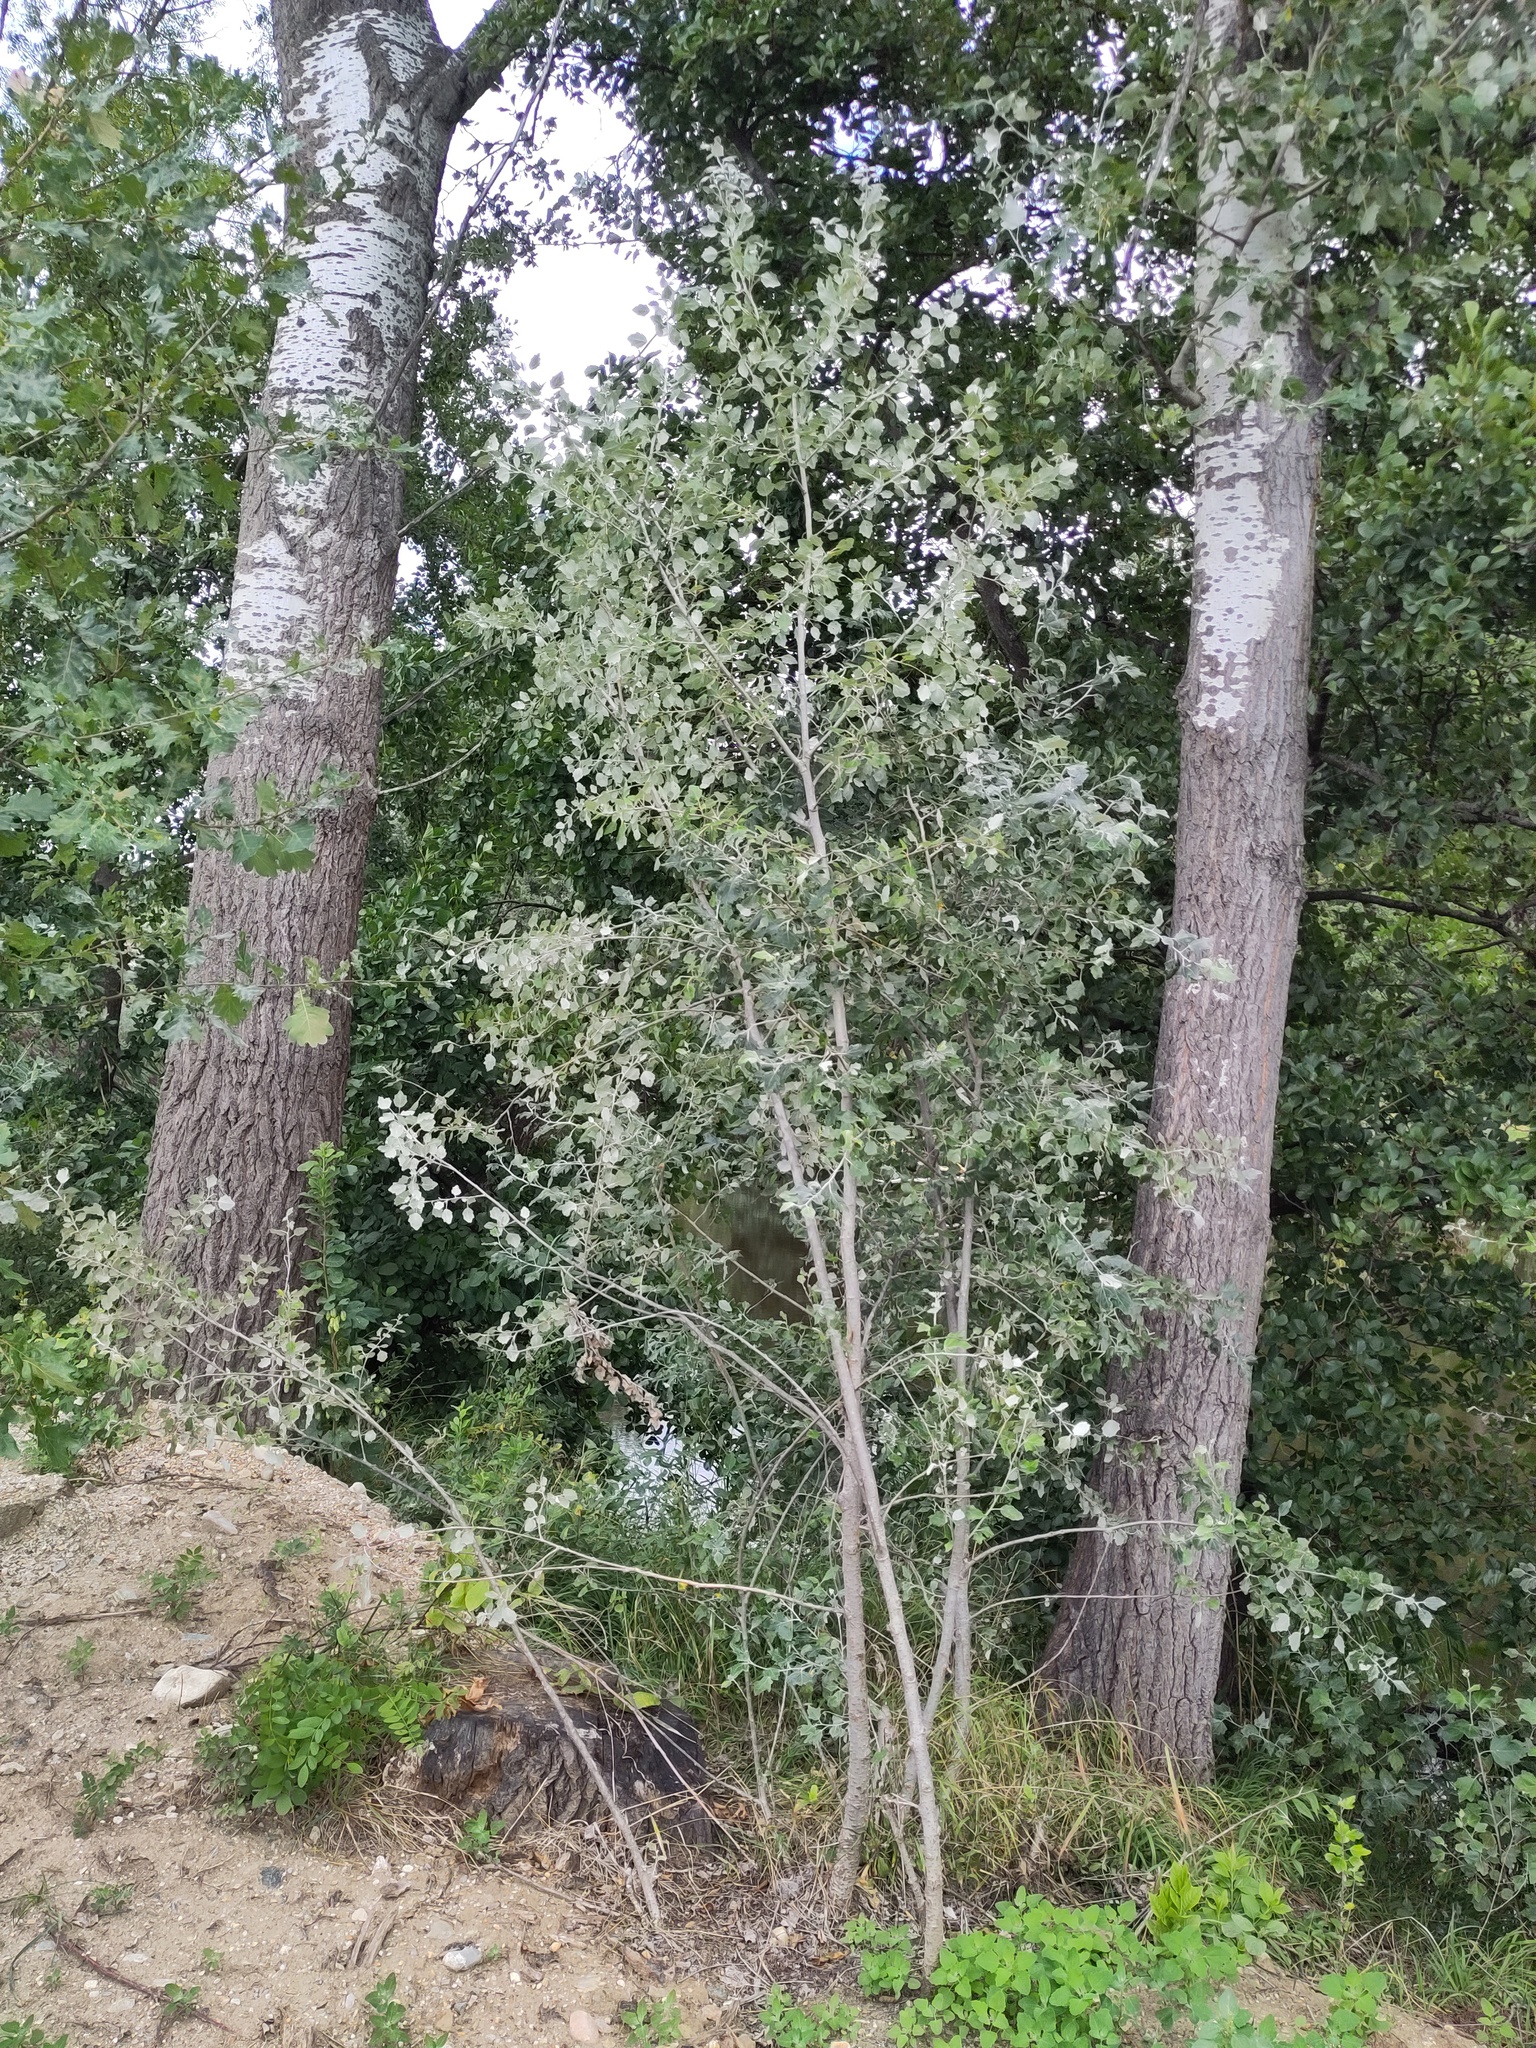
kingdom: Plantae
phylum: Tracheophyta
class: Magnoliopsida
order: Malpighiales
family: Salicaceae
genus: Populus
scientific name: Populus alba
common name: White poplar
